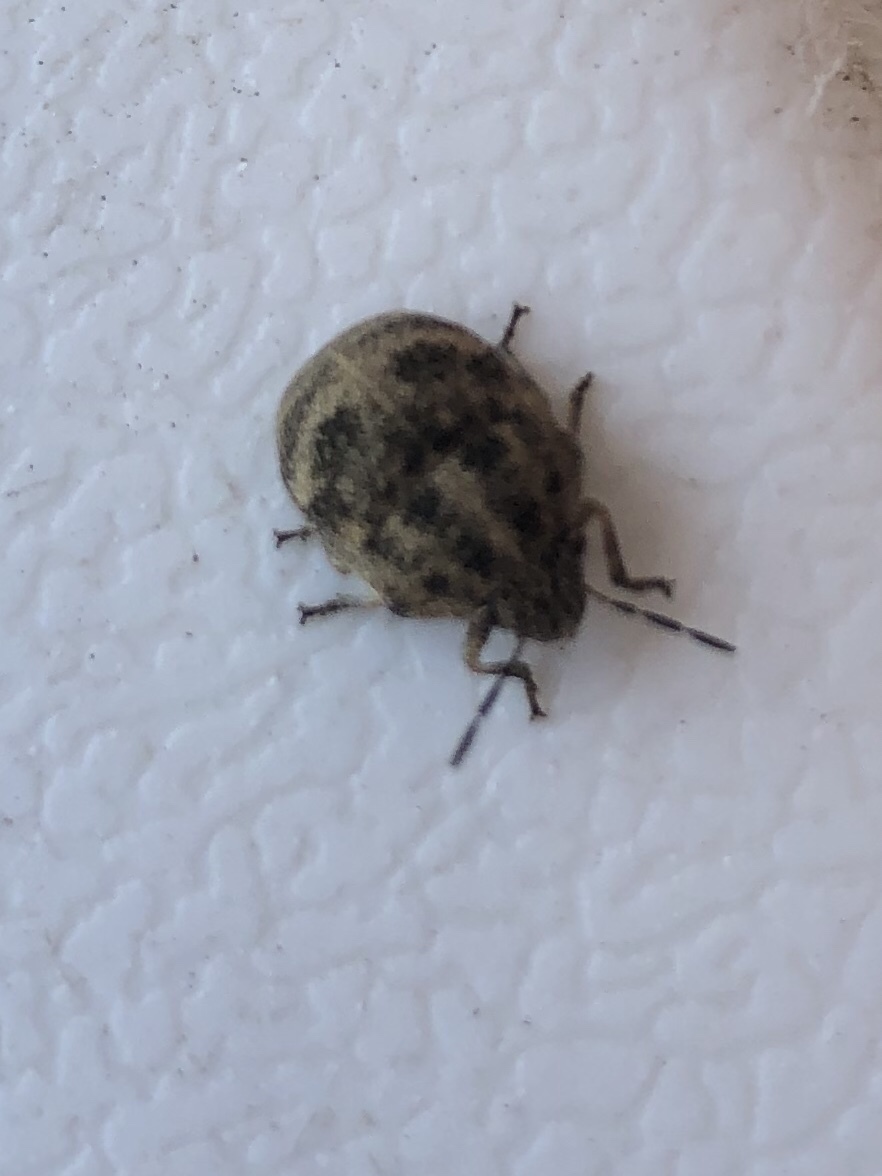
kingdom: Animalia
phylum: Arthropoda
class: Insecta
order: Hemiptera
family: Scutelleridae
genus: Orsilochides
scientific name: Orsilochides
